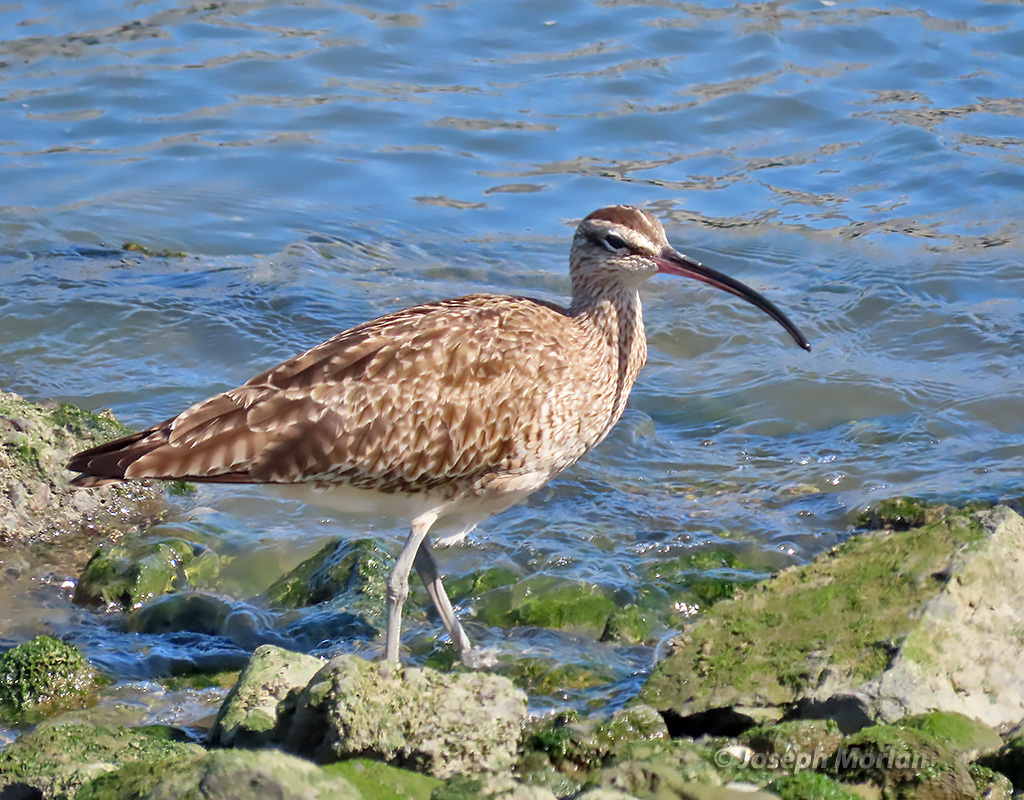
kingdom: Animalia
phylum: Chordata
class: Aves
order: Charadriiformes
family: Scolopacidae
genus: Numenius
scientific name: Numenius phaeopus
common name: Whimbrel
